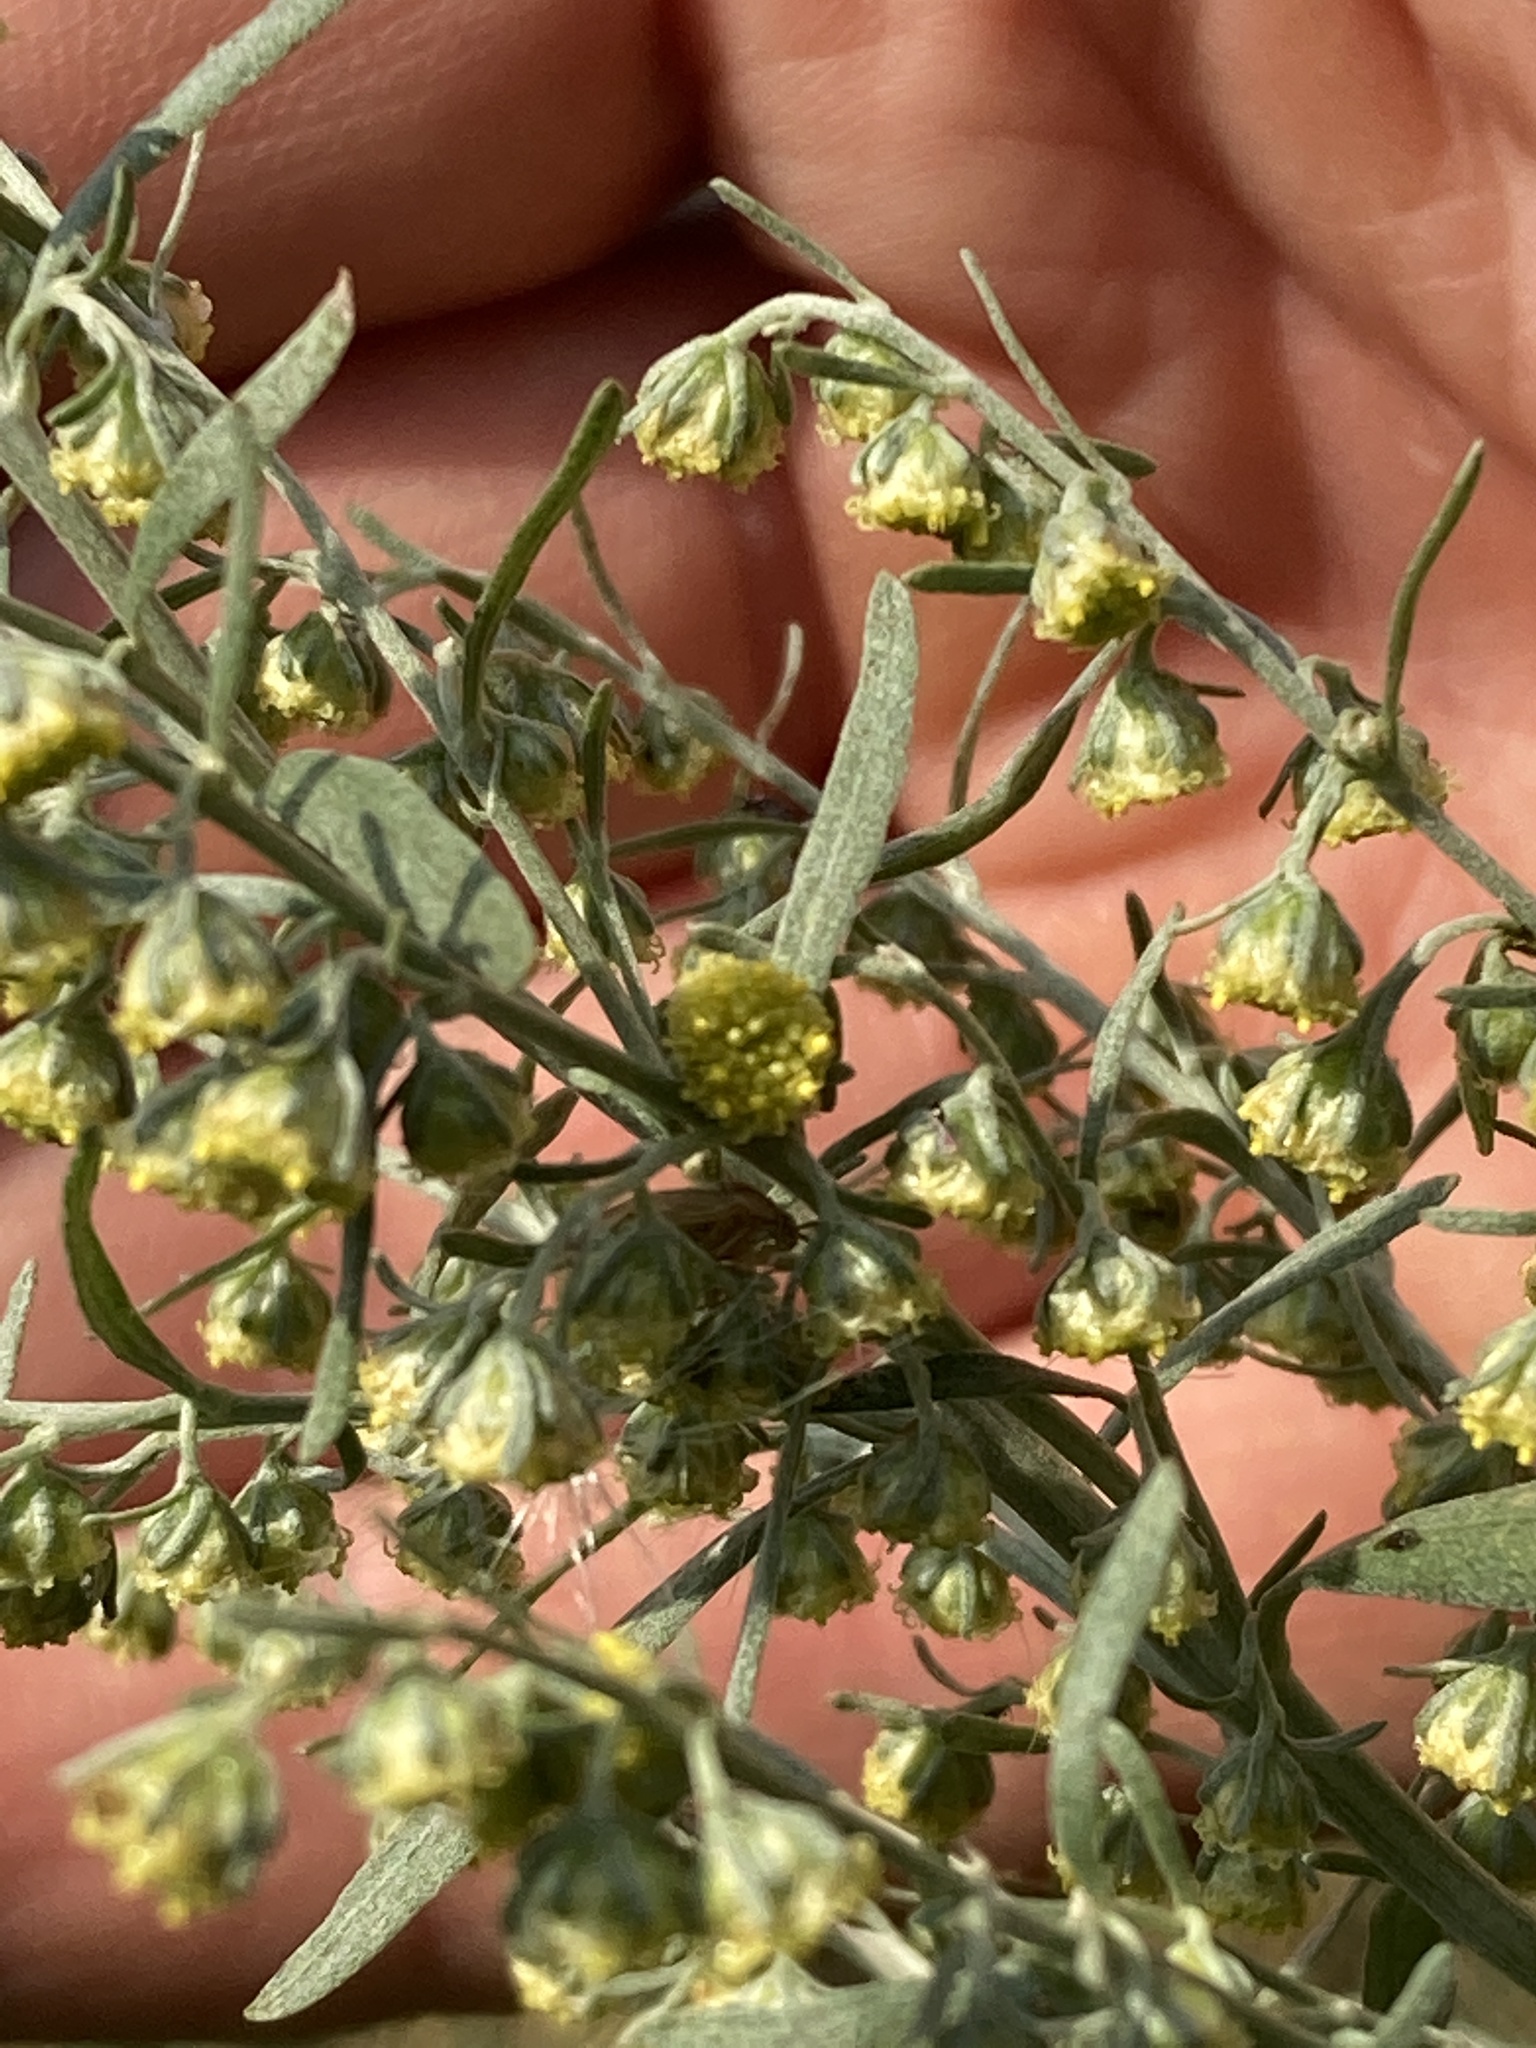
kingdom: Plantae
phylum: Tracheophyta
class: Magnoliopsida
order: Asterales
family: Asteraceae
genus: Artemisia
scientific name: Artemisia absinthium
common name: Wormwood
